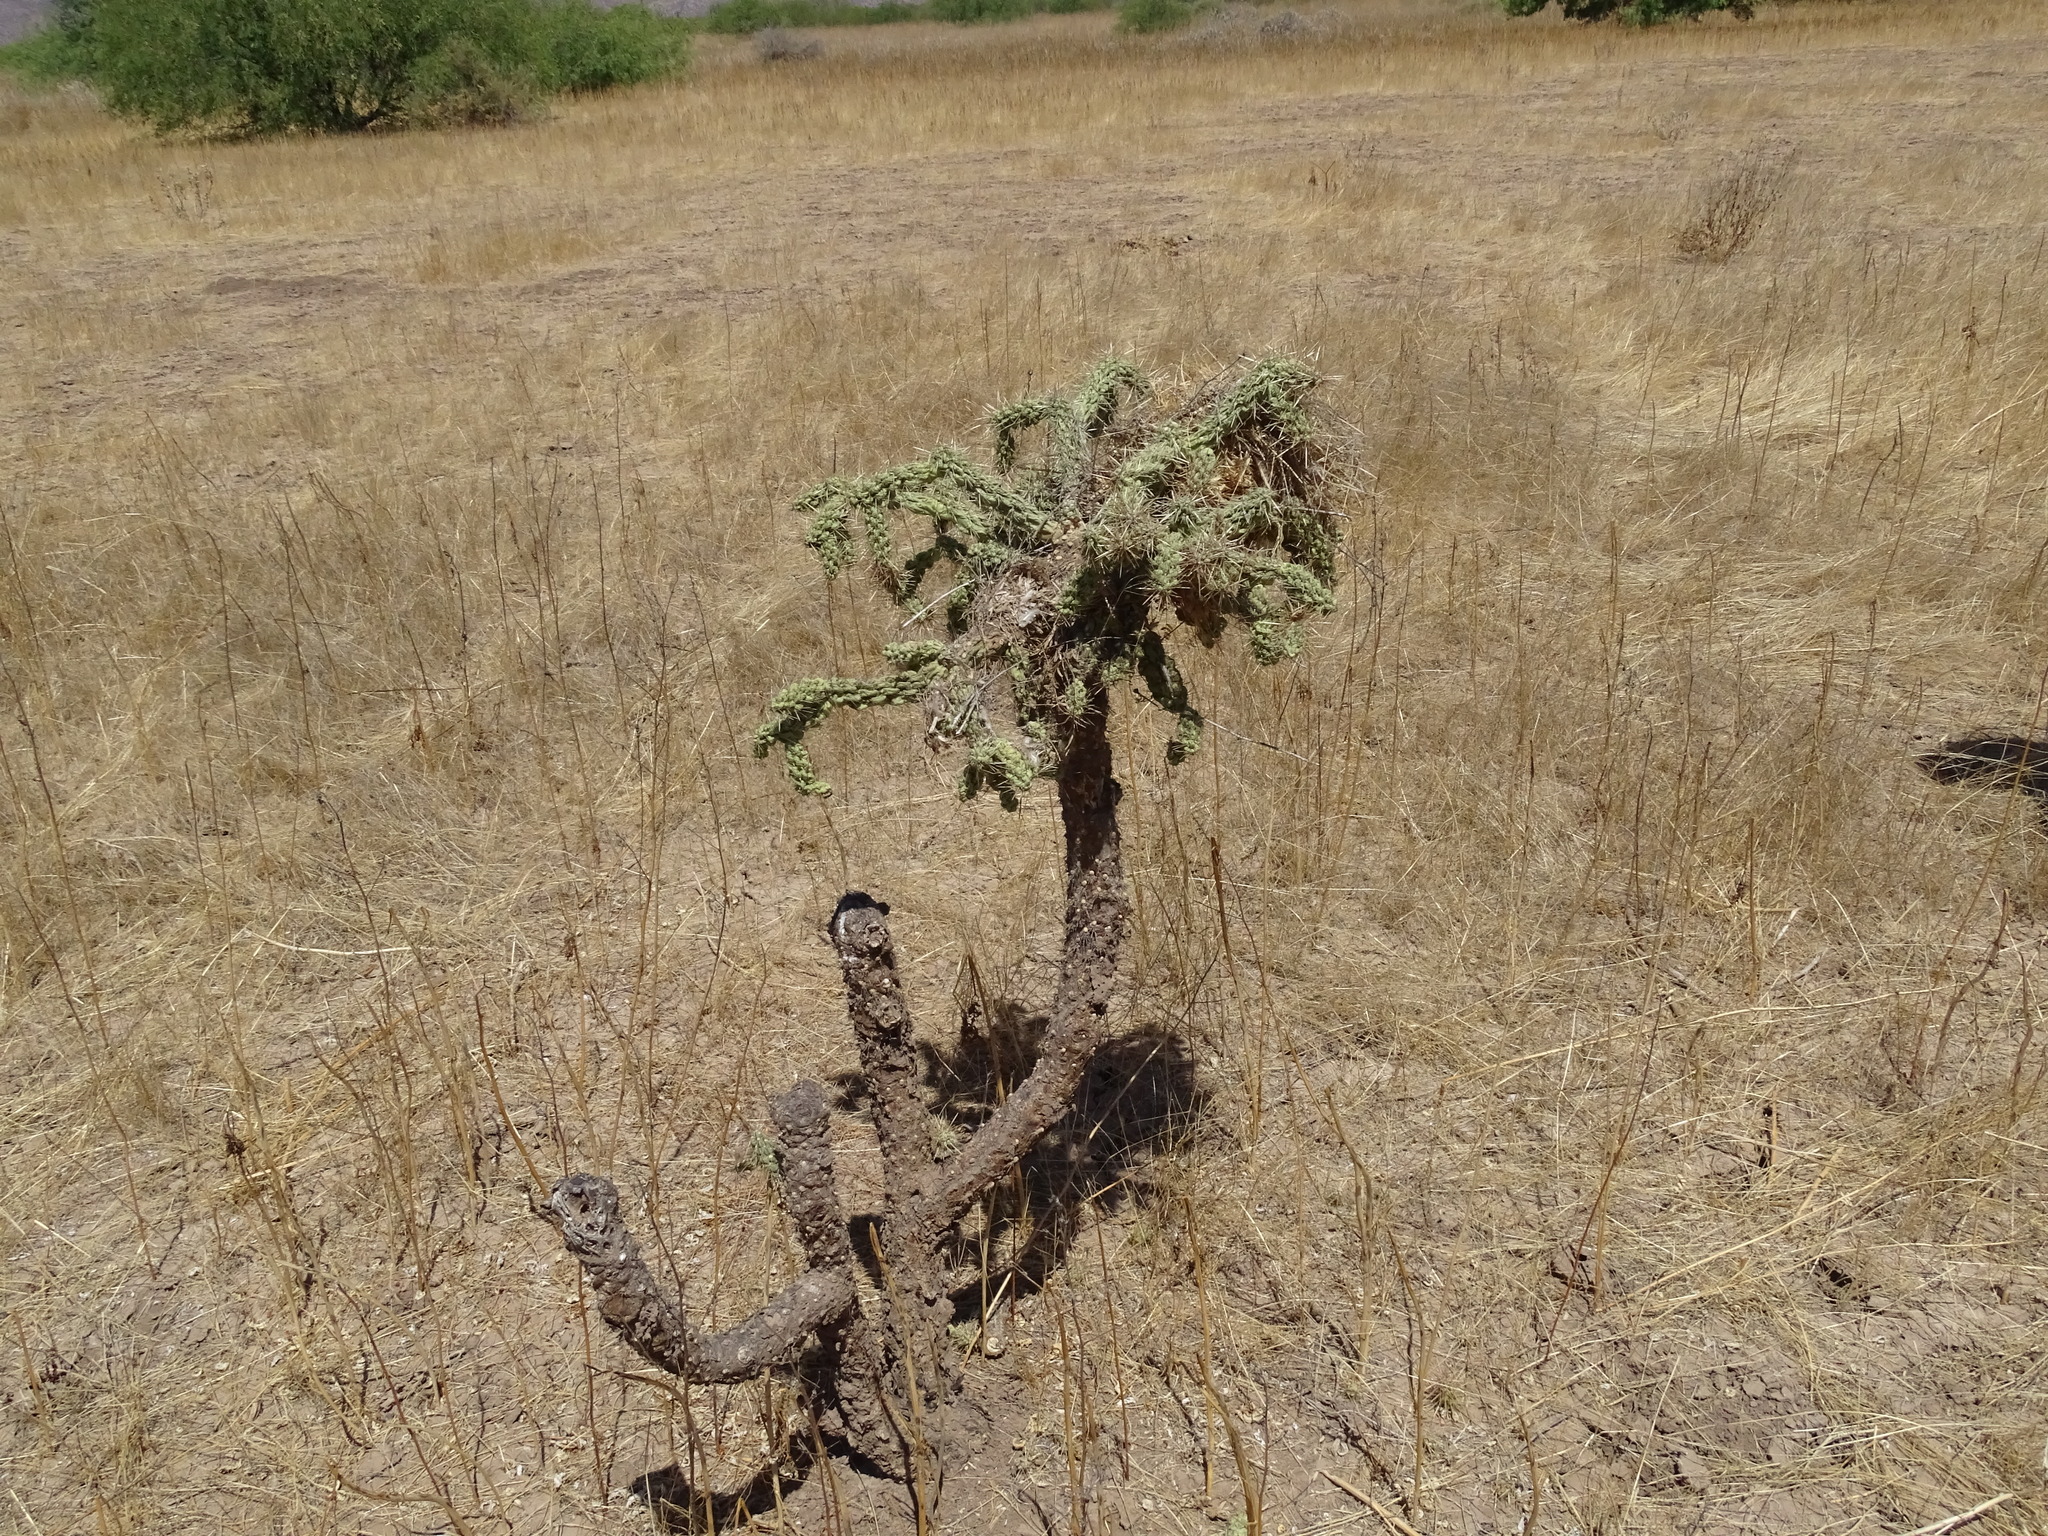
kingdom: Plantae
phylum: Tracheophyta
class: Magnoliopsida
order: Caryophyllales
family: Cactaceae
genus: Cylindropuntia
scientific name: Cylindropuntia fulgida
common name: Jumping cholla
